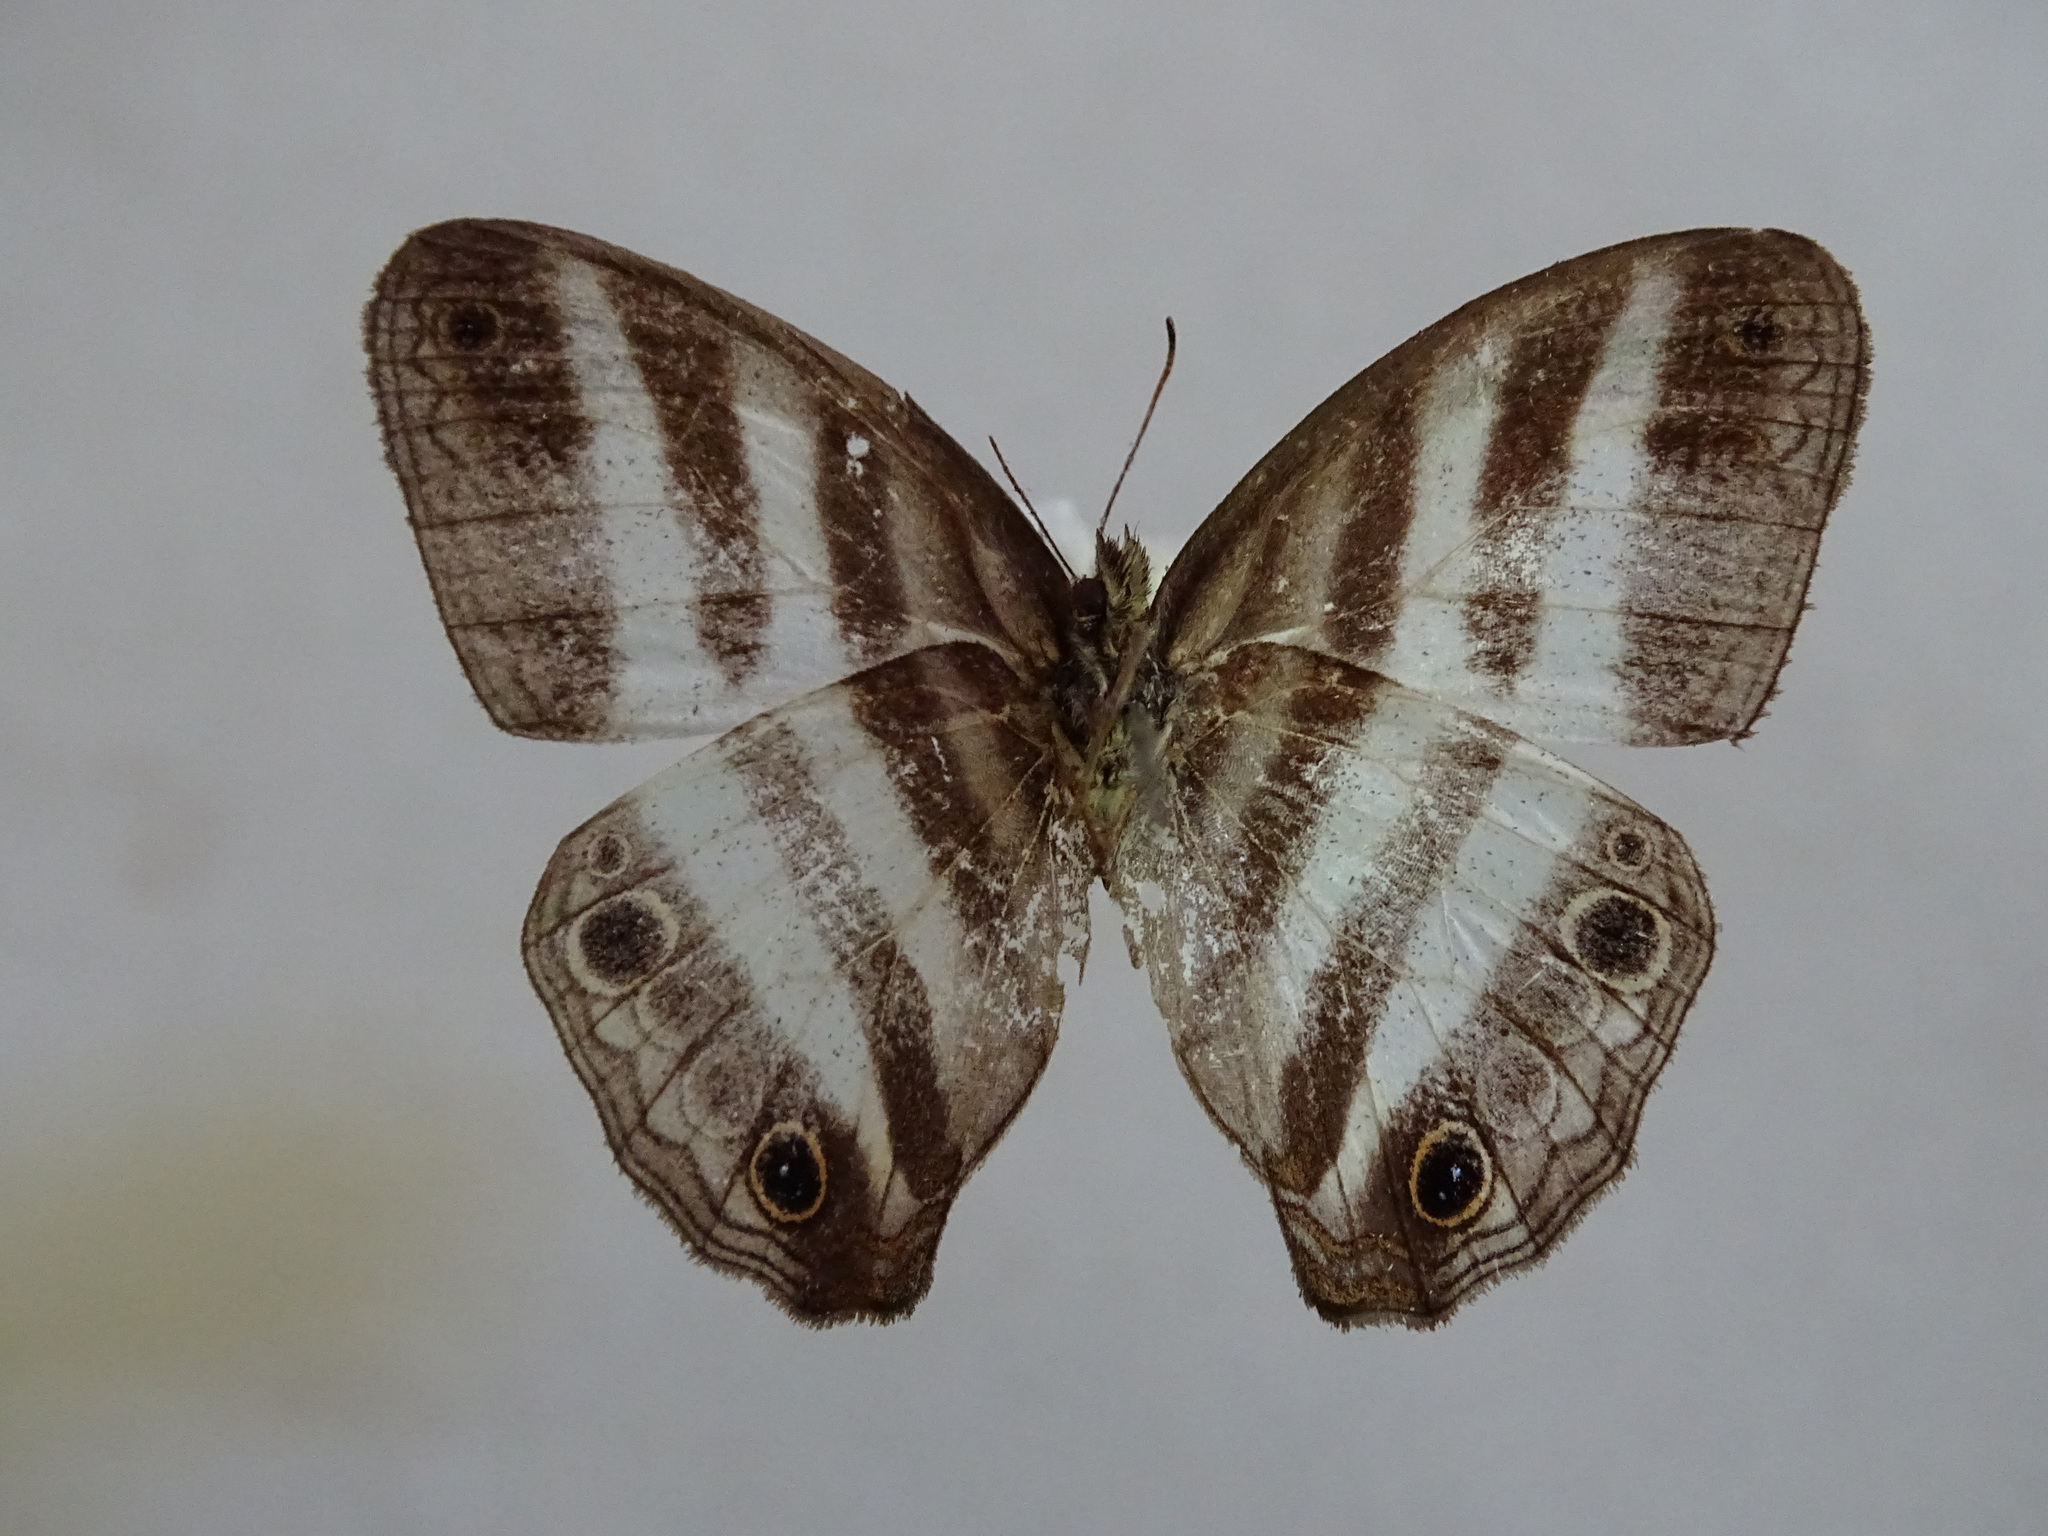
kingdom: Animalia
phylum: Arthropoda
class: Insecta
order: Lepidoptera
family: Nymphalidae
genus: Pareuptychia
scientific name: Pareuptychia hesione
